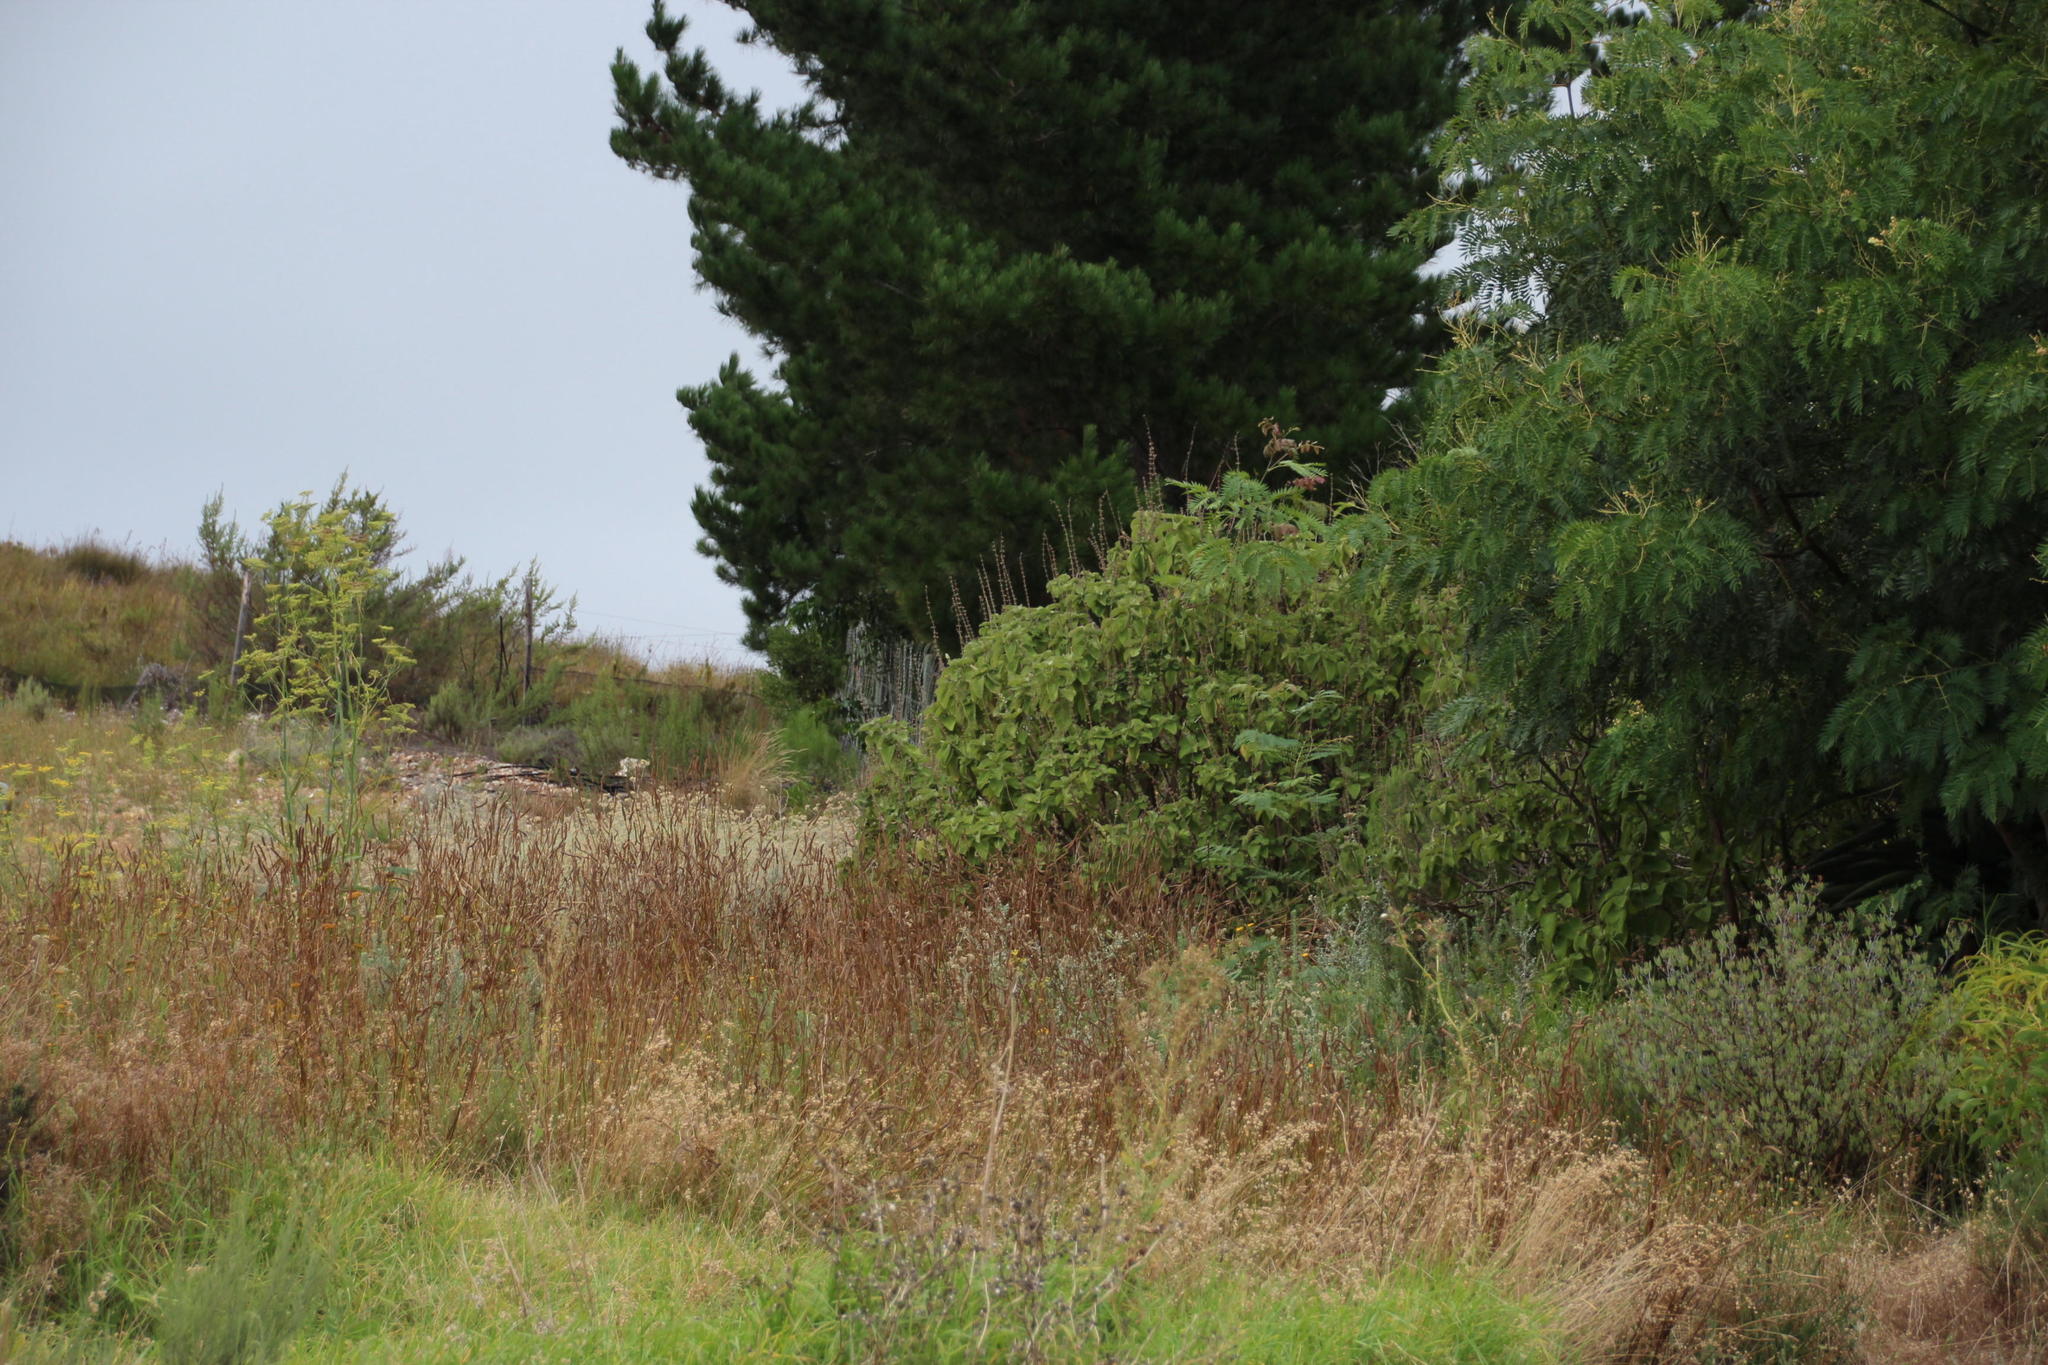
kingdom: Plantae
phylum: Tracheophyta
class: Magnoliopsida
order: Fabales
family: Fabaceae
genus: Acacia
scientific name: Acacia elata
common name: Cedar wattle
